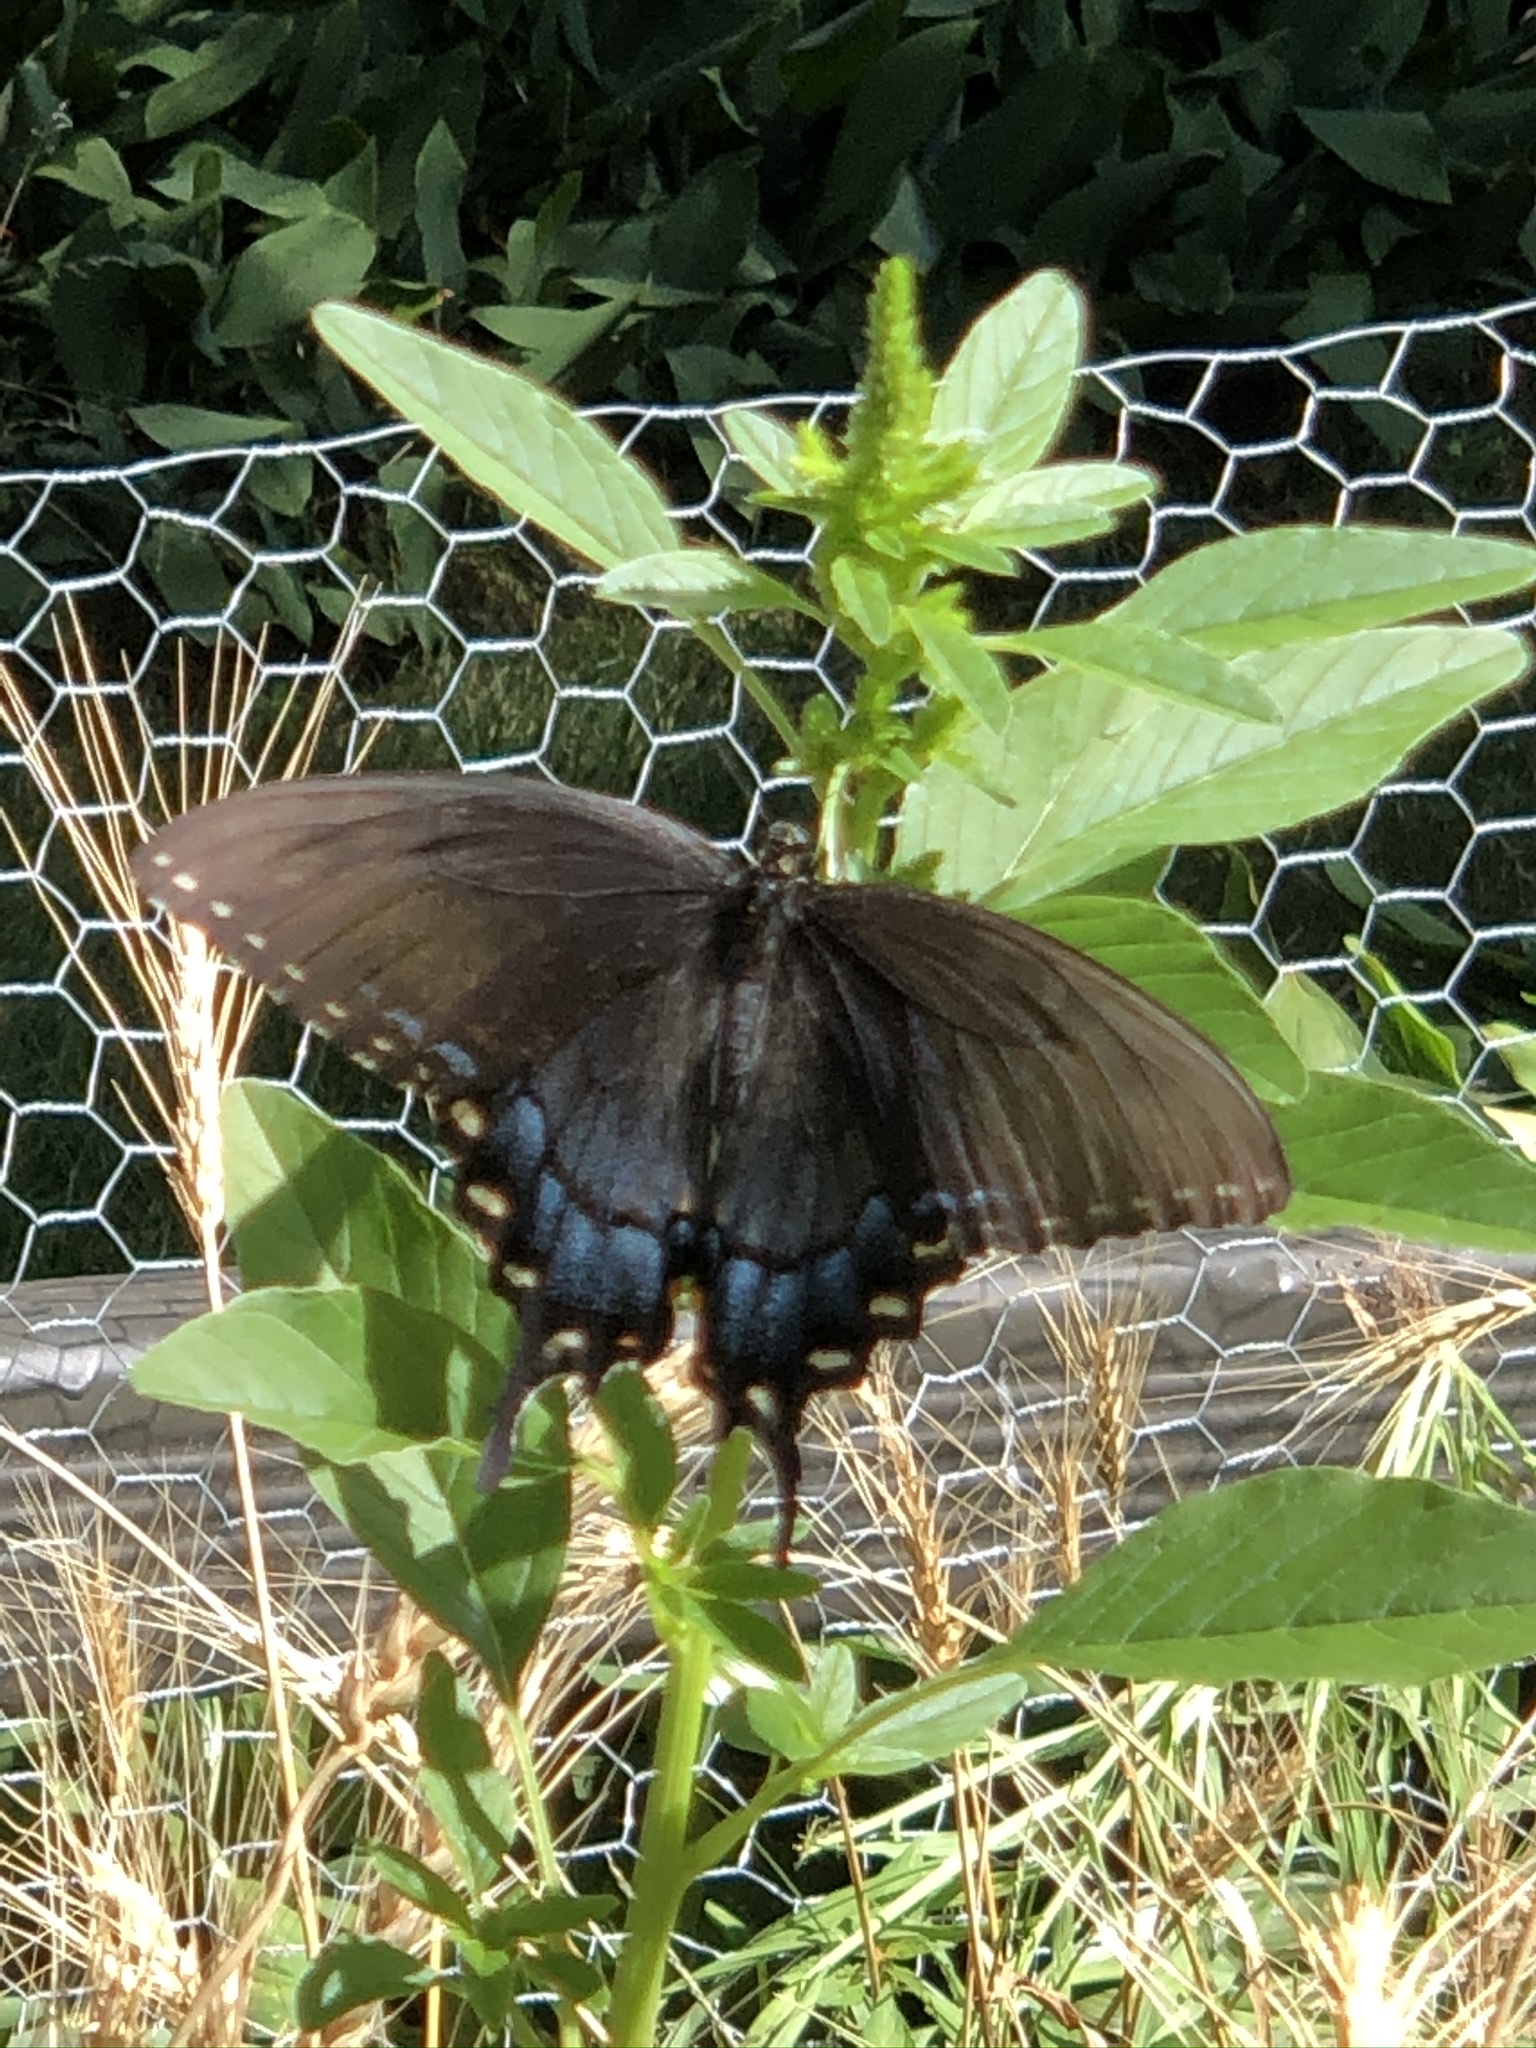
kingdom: Animalia
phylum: Arthropoda
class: Insecta
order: Lepidoptera
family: Papilionidae
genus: Papilio
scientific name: Papilio glaucus
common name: Tiger swallowtail
